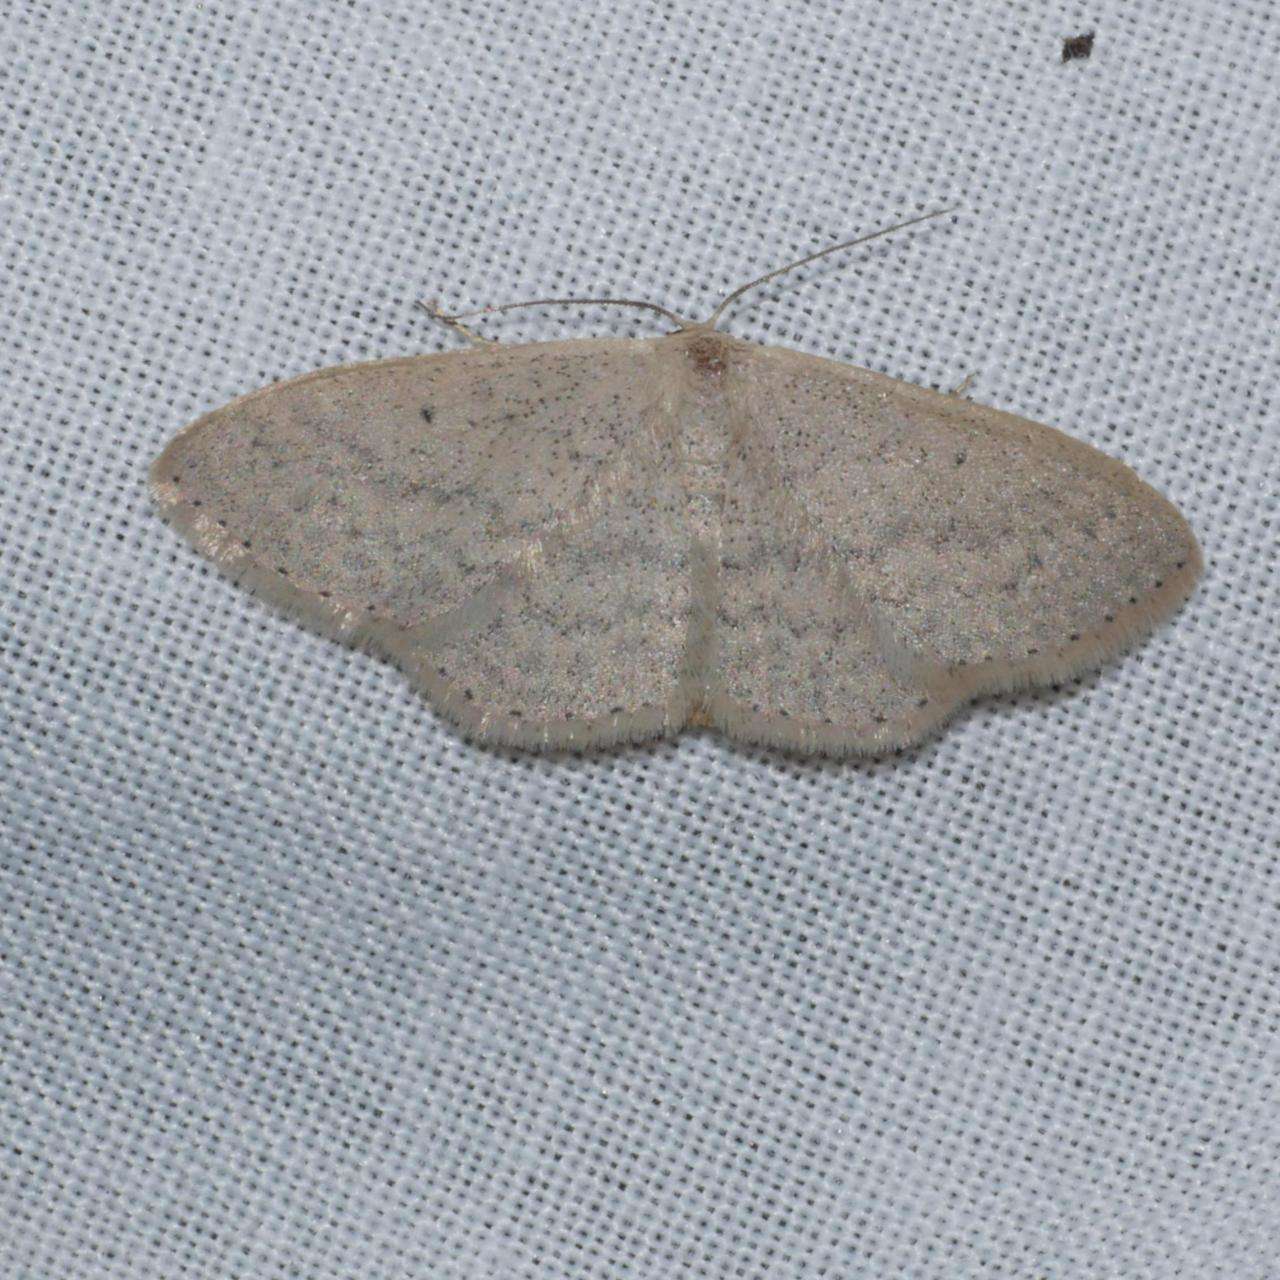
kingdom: Animalia
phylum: Arthropoda
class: Insecta
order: Lepidoptera
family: Geometridae
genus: Scopula
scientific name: Scopula optivata
